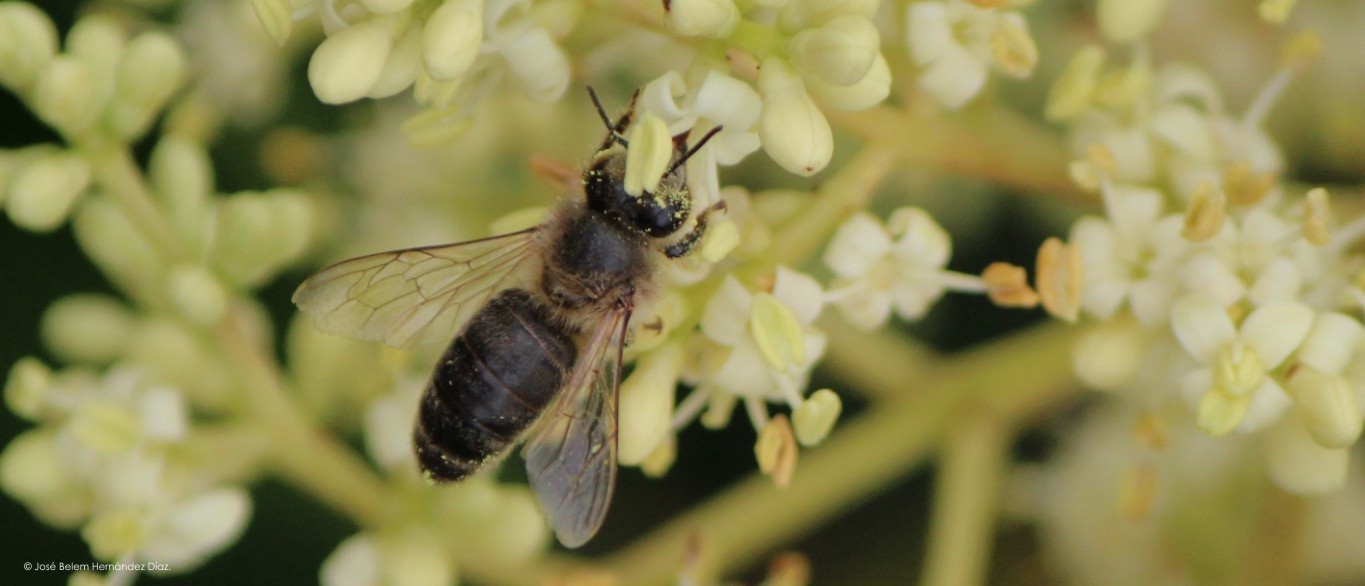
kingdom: Animalia
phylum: Arthropoda
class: Insecta
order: Hymenoptera
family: Apidae
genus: Apis
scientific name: Apis mellifera
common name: Honey bee
